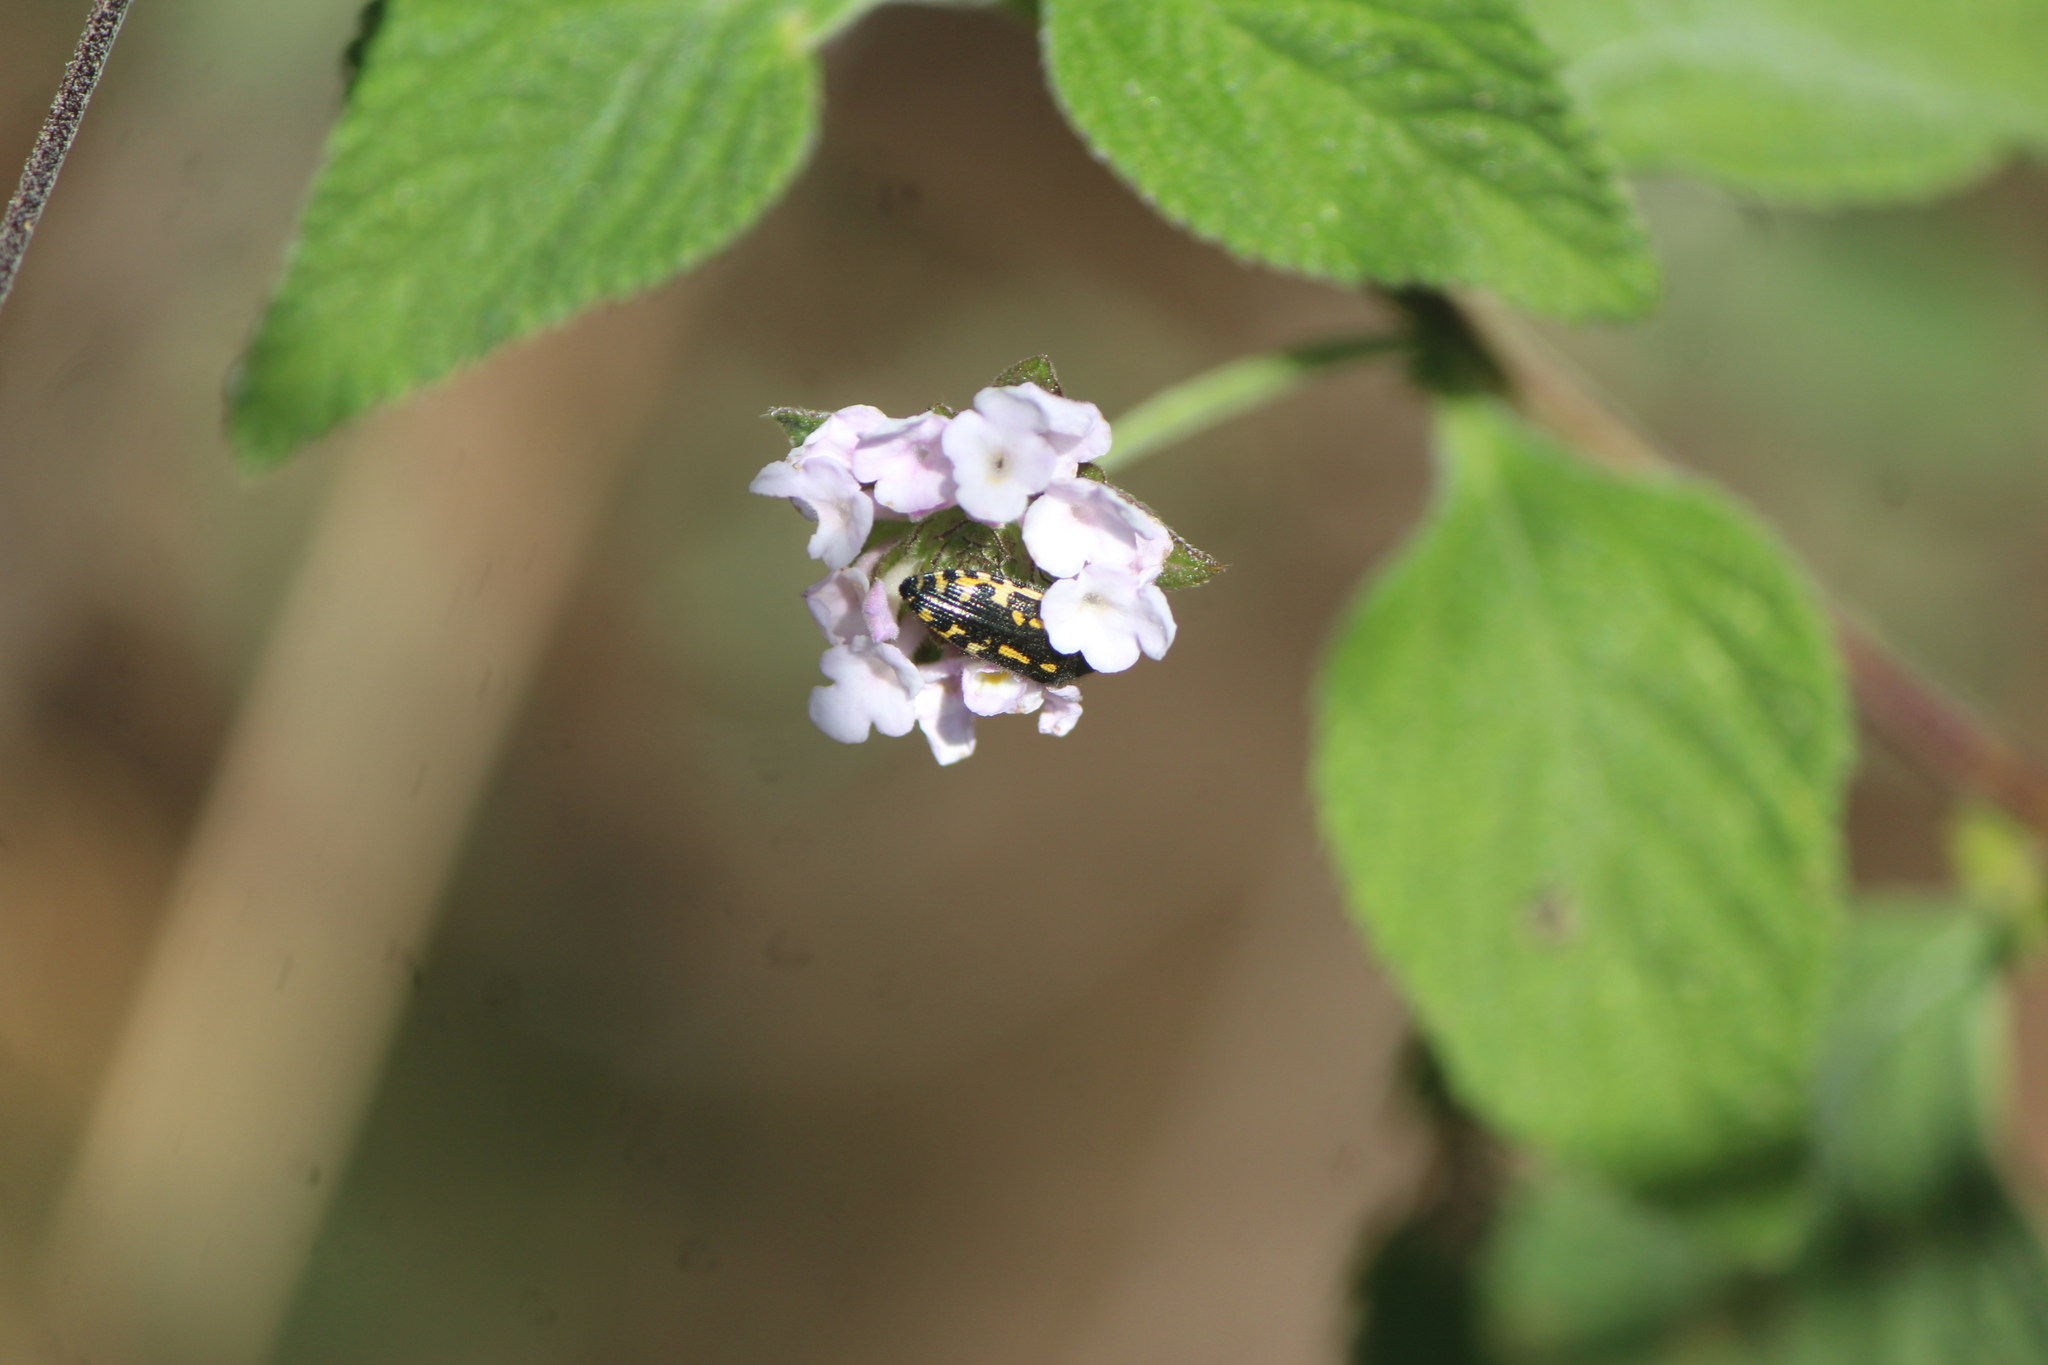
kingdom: Animalia
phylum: Arthropoda
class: Insecta
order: Coleoptera
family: Buprestidae
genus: Acmaeodera
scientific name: Acmaeodera scalaris
